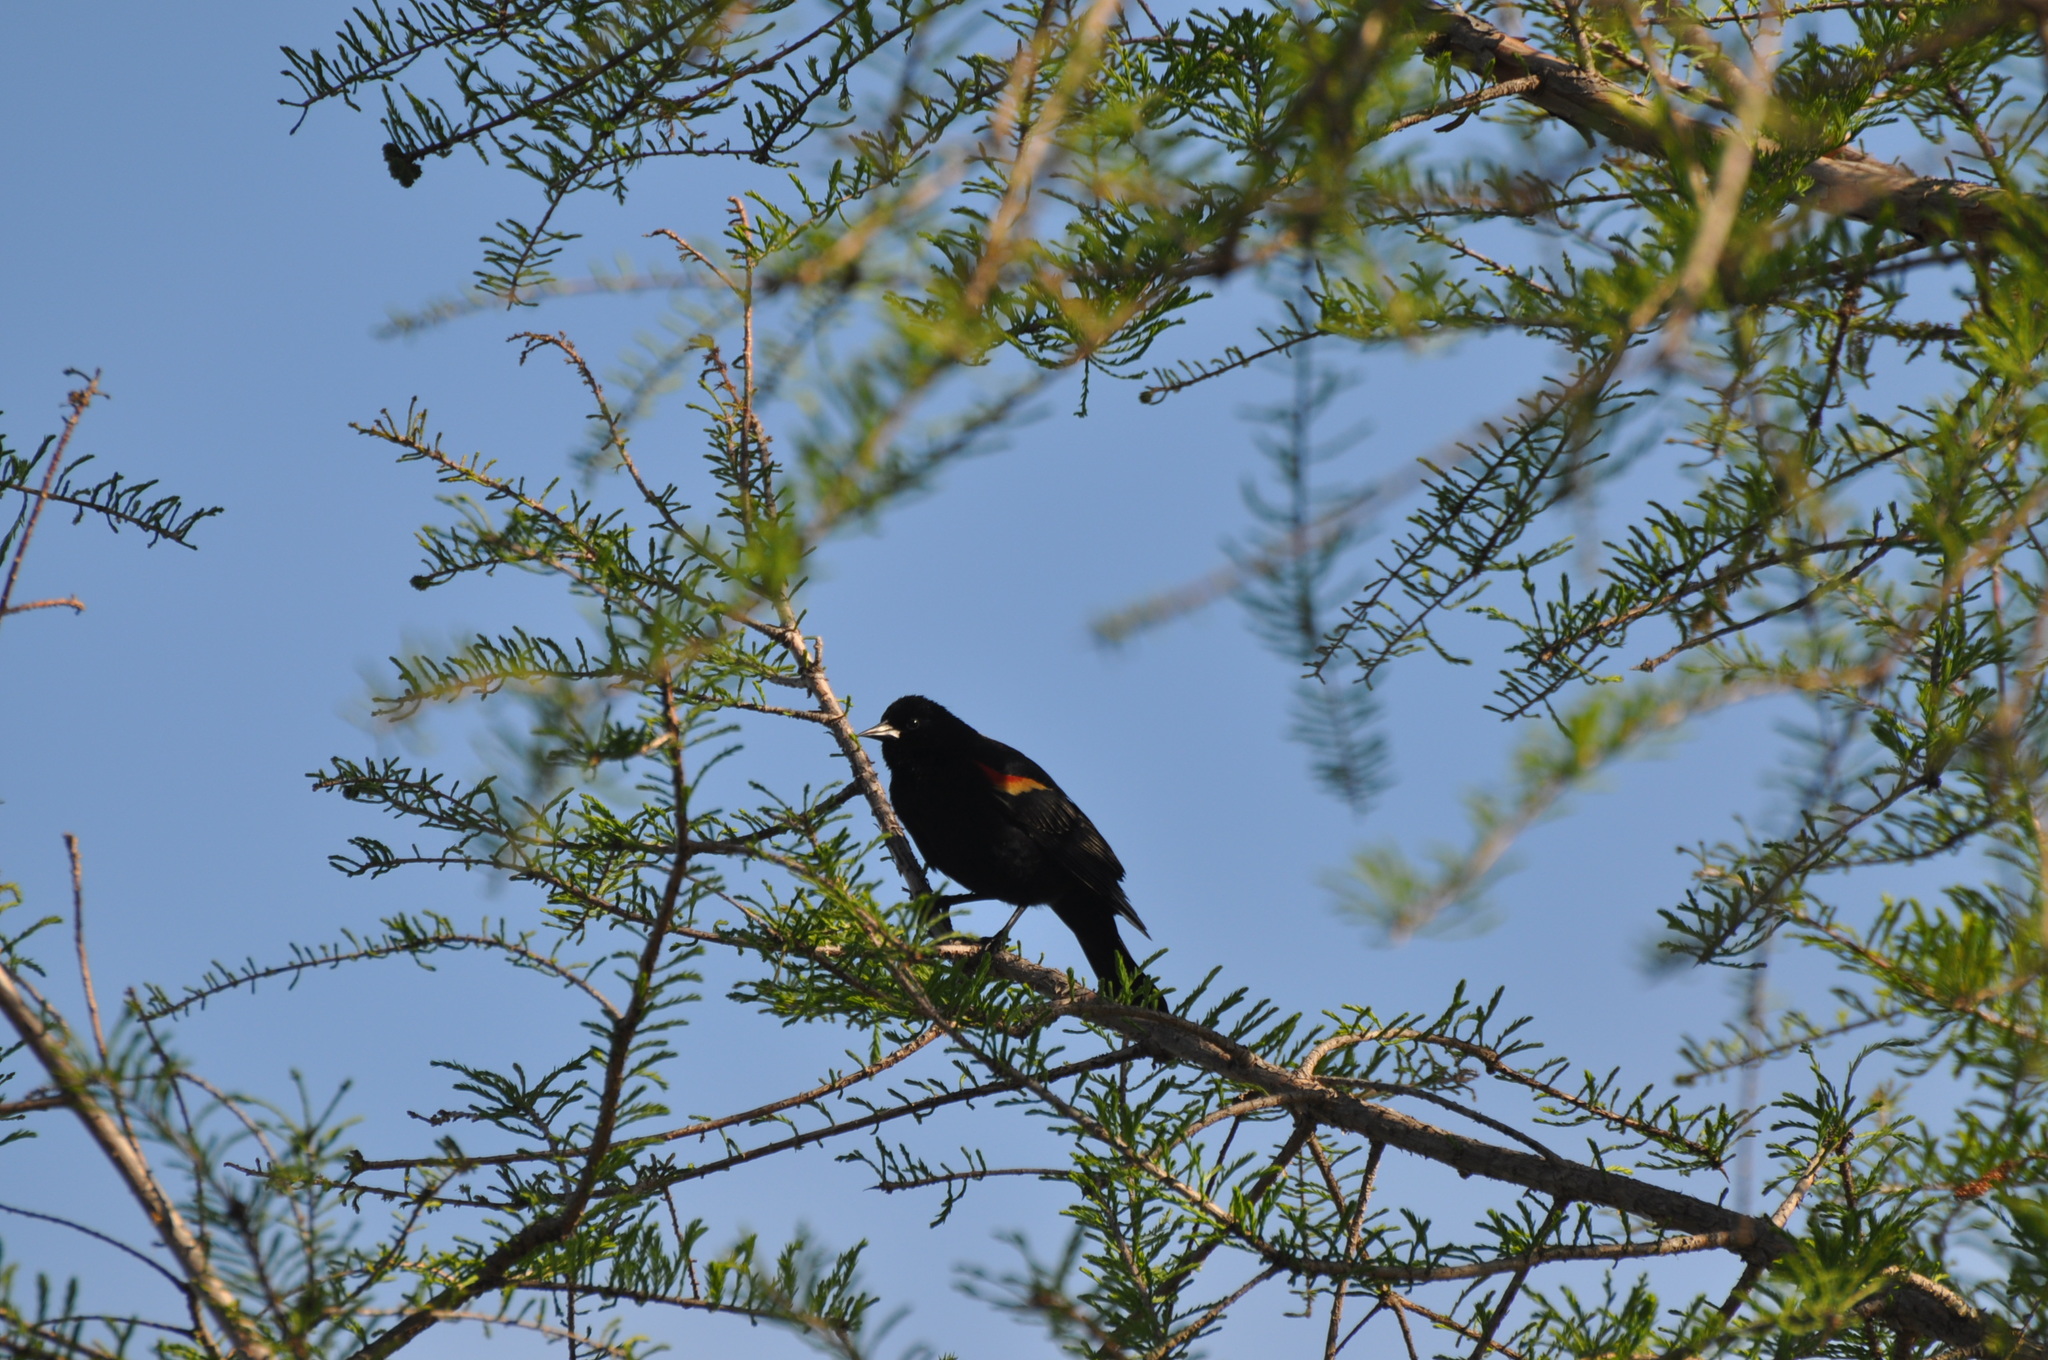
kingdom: Animalia
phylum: Chordata
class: Aves
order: Passeriformes
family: Icteridae
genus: Agelaius
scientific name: Agelaius phoeniceus
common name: Red-winged blackbird
